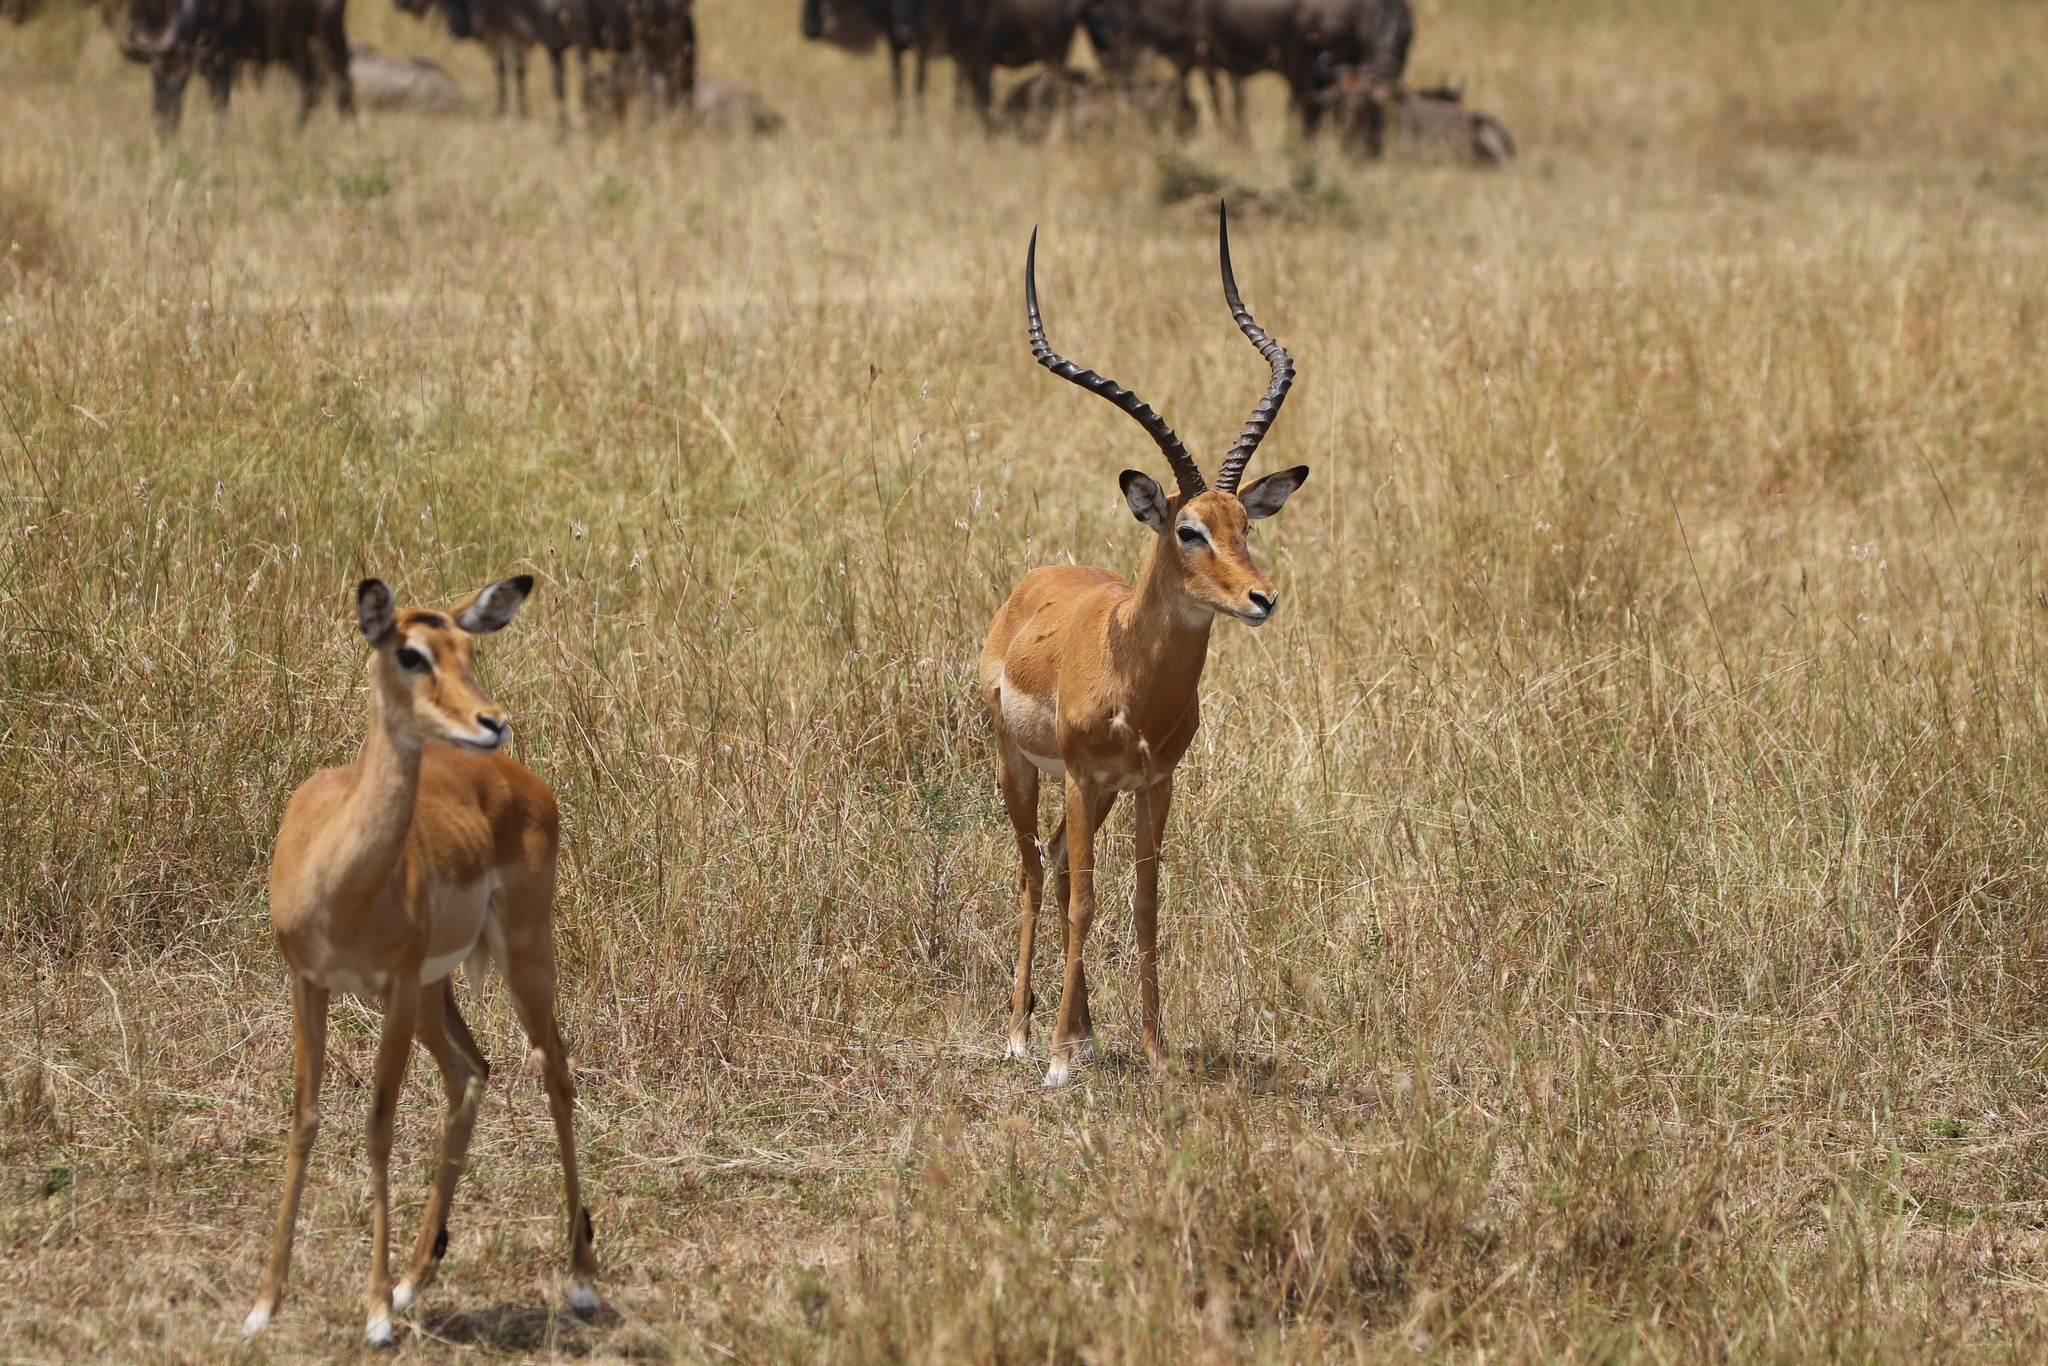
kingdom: Animalia
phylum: Chordata
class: Mammalia
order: Artiodactyla
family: Bovidae
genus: Aepyceros
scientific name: Aepyceros melampus
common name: Impala
